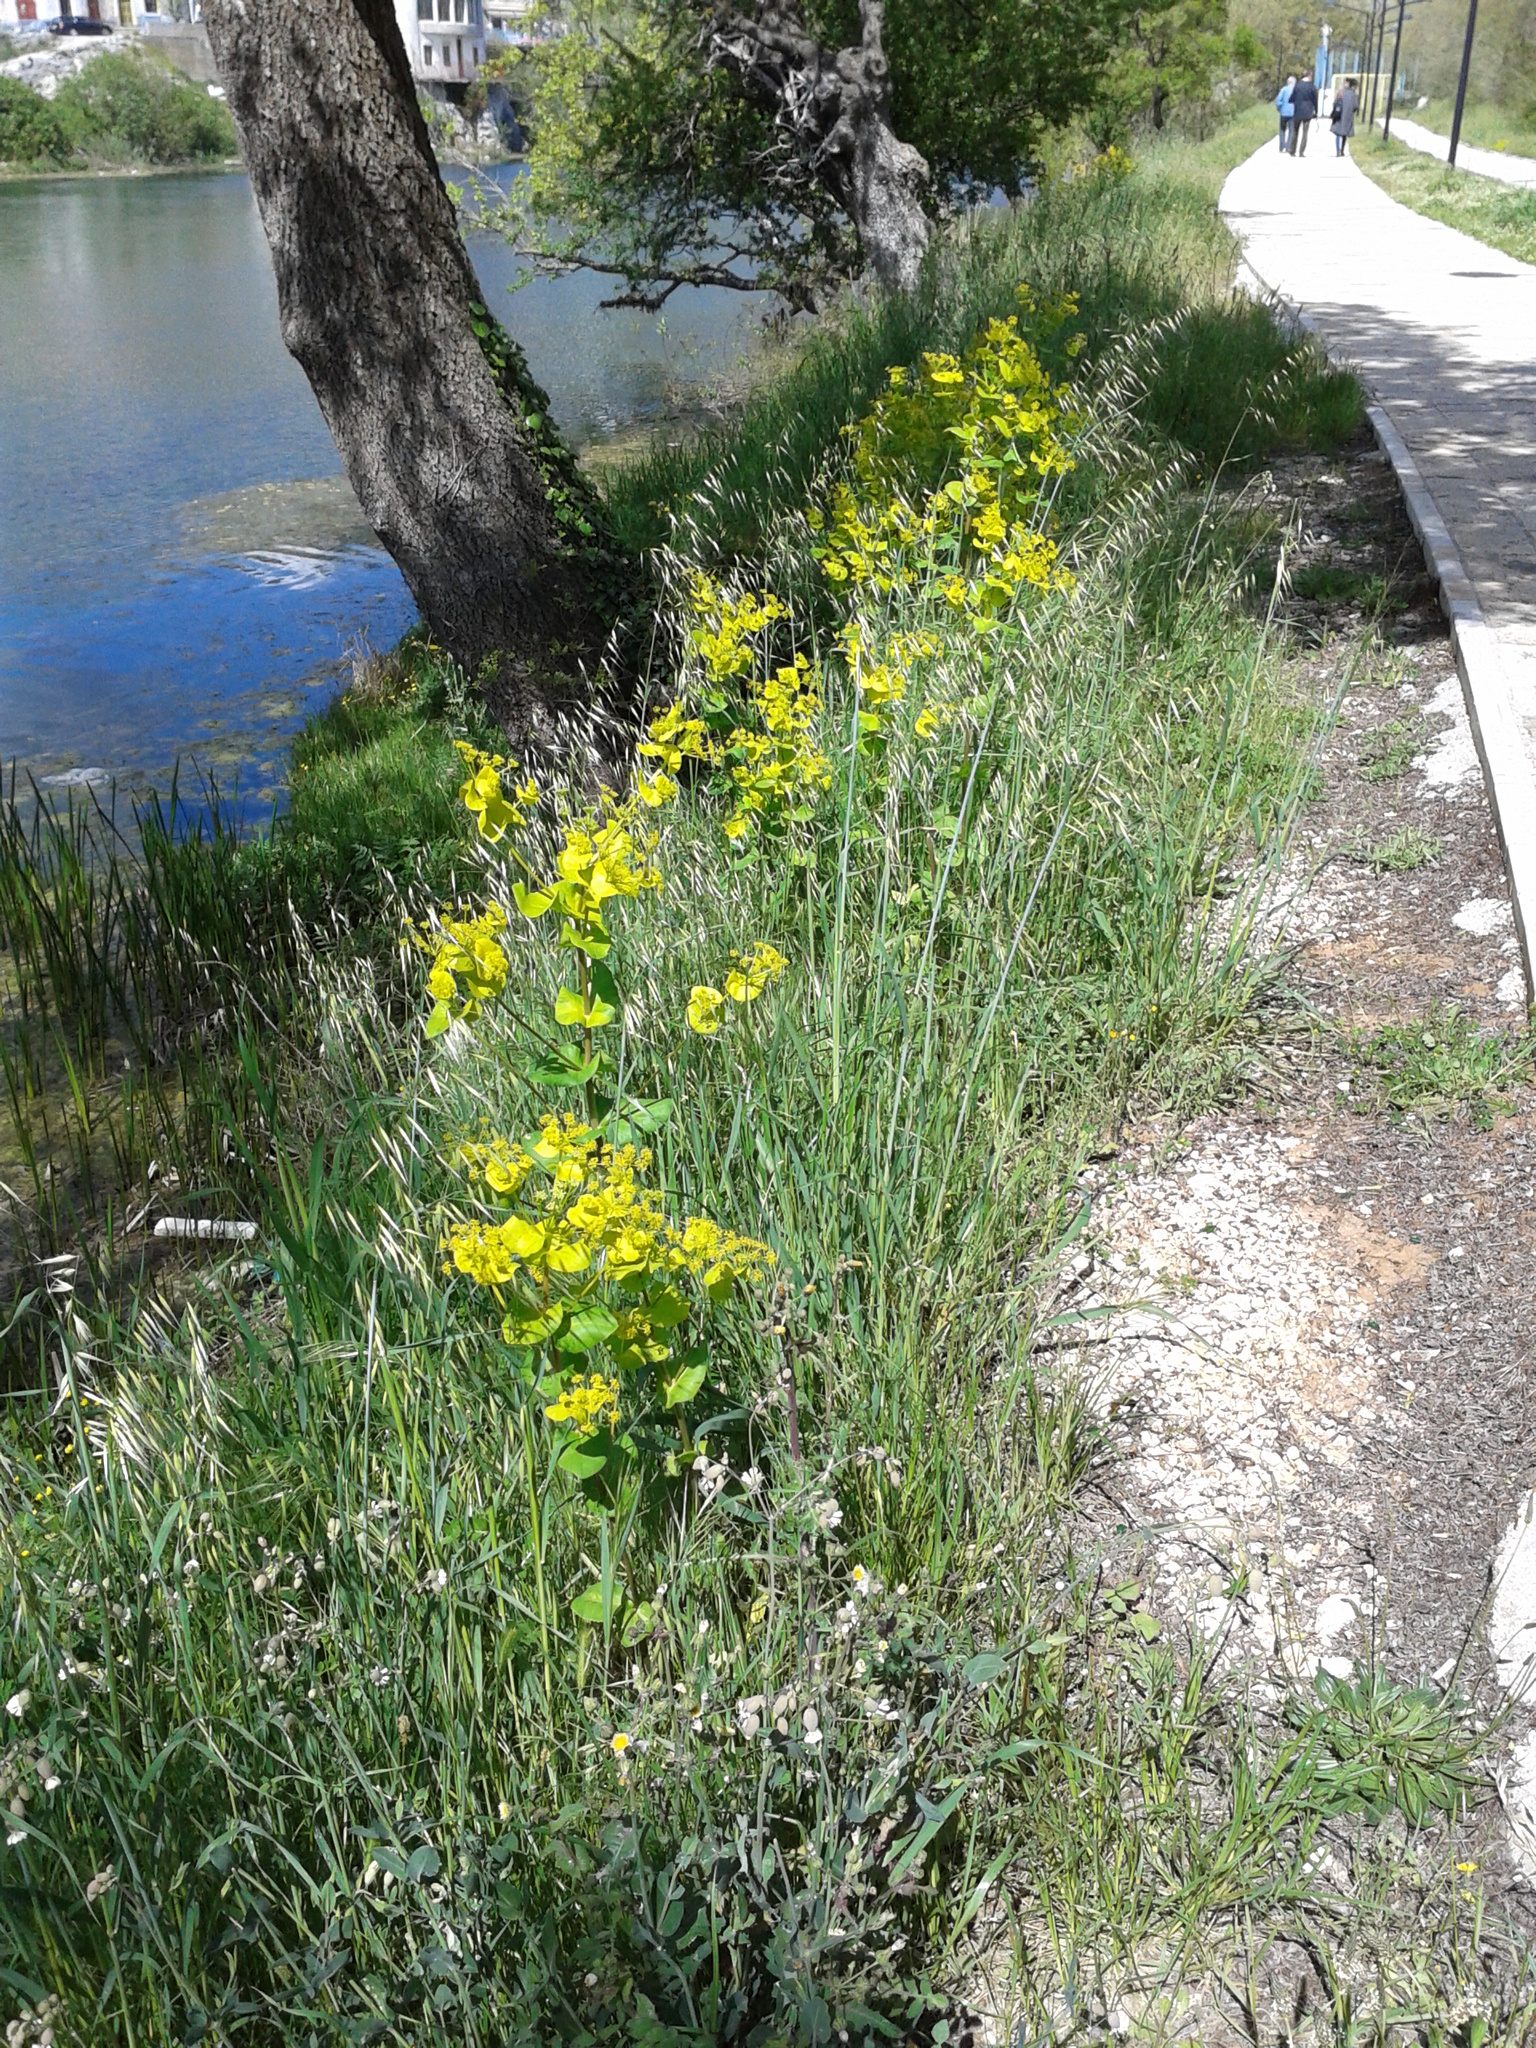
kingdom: Plantae
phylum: Tracheophyta
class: Magnoliopsida
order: Apiales
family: Apiaceae
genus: Smyrnium
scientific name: Smyrnium perfoliatum
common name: Perfoliate alexanders
